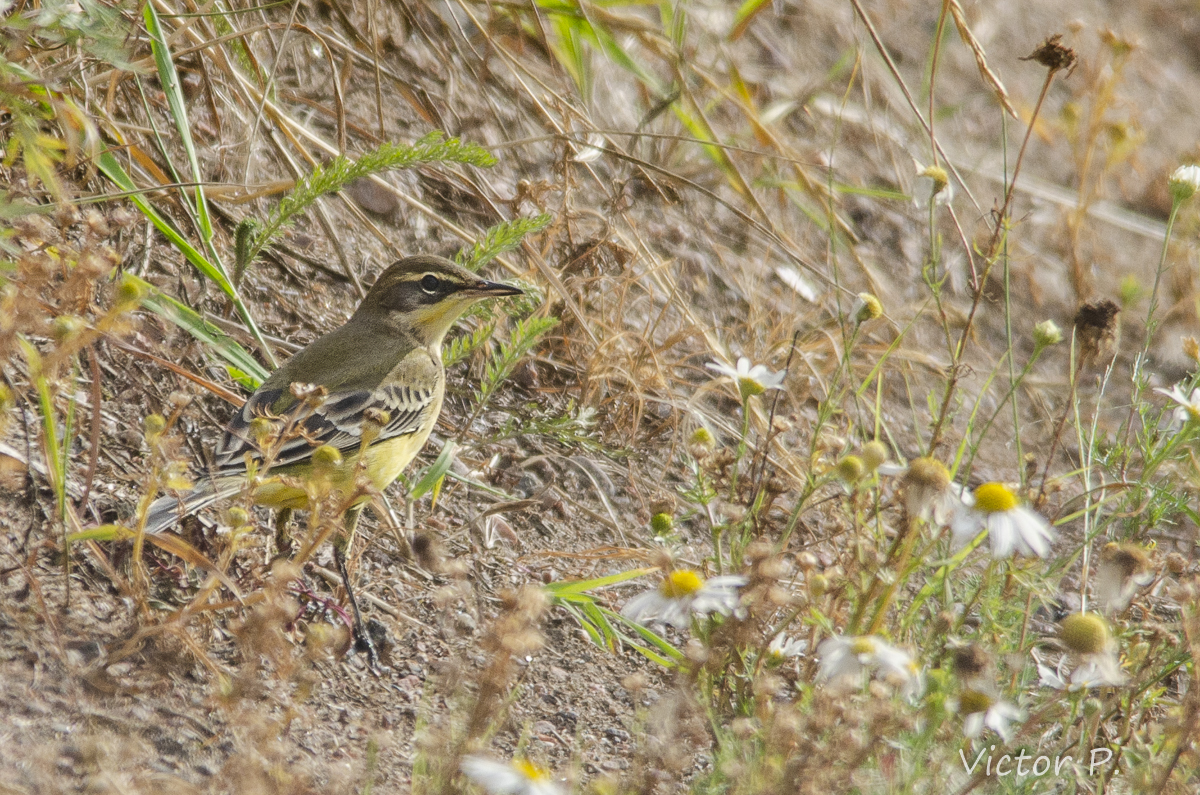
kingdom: Animalia
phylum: Chordata
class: Aves
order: Passeriformes
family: Motacillidae
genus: Motacilla
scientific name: Motacilla flava
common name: Western yellow wagtail
